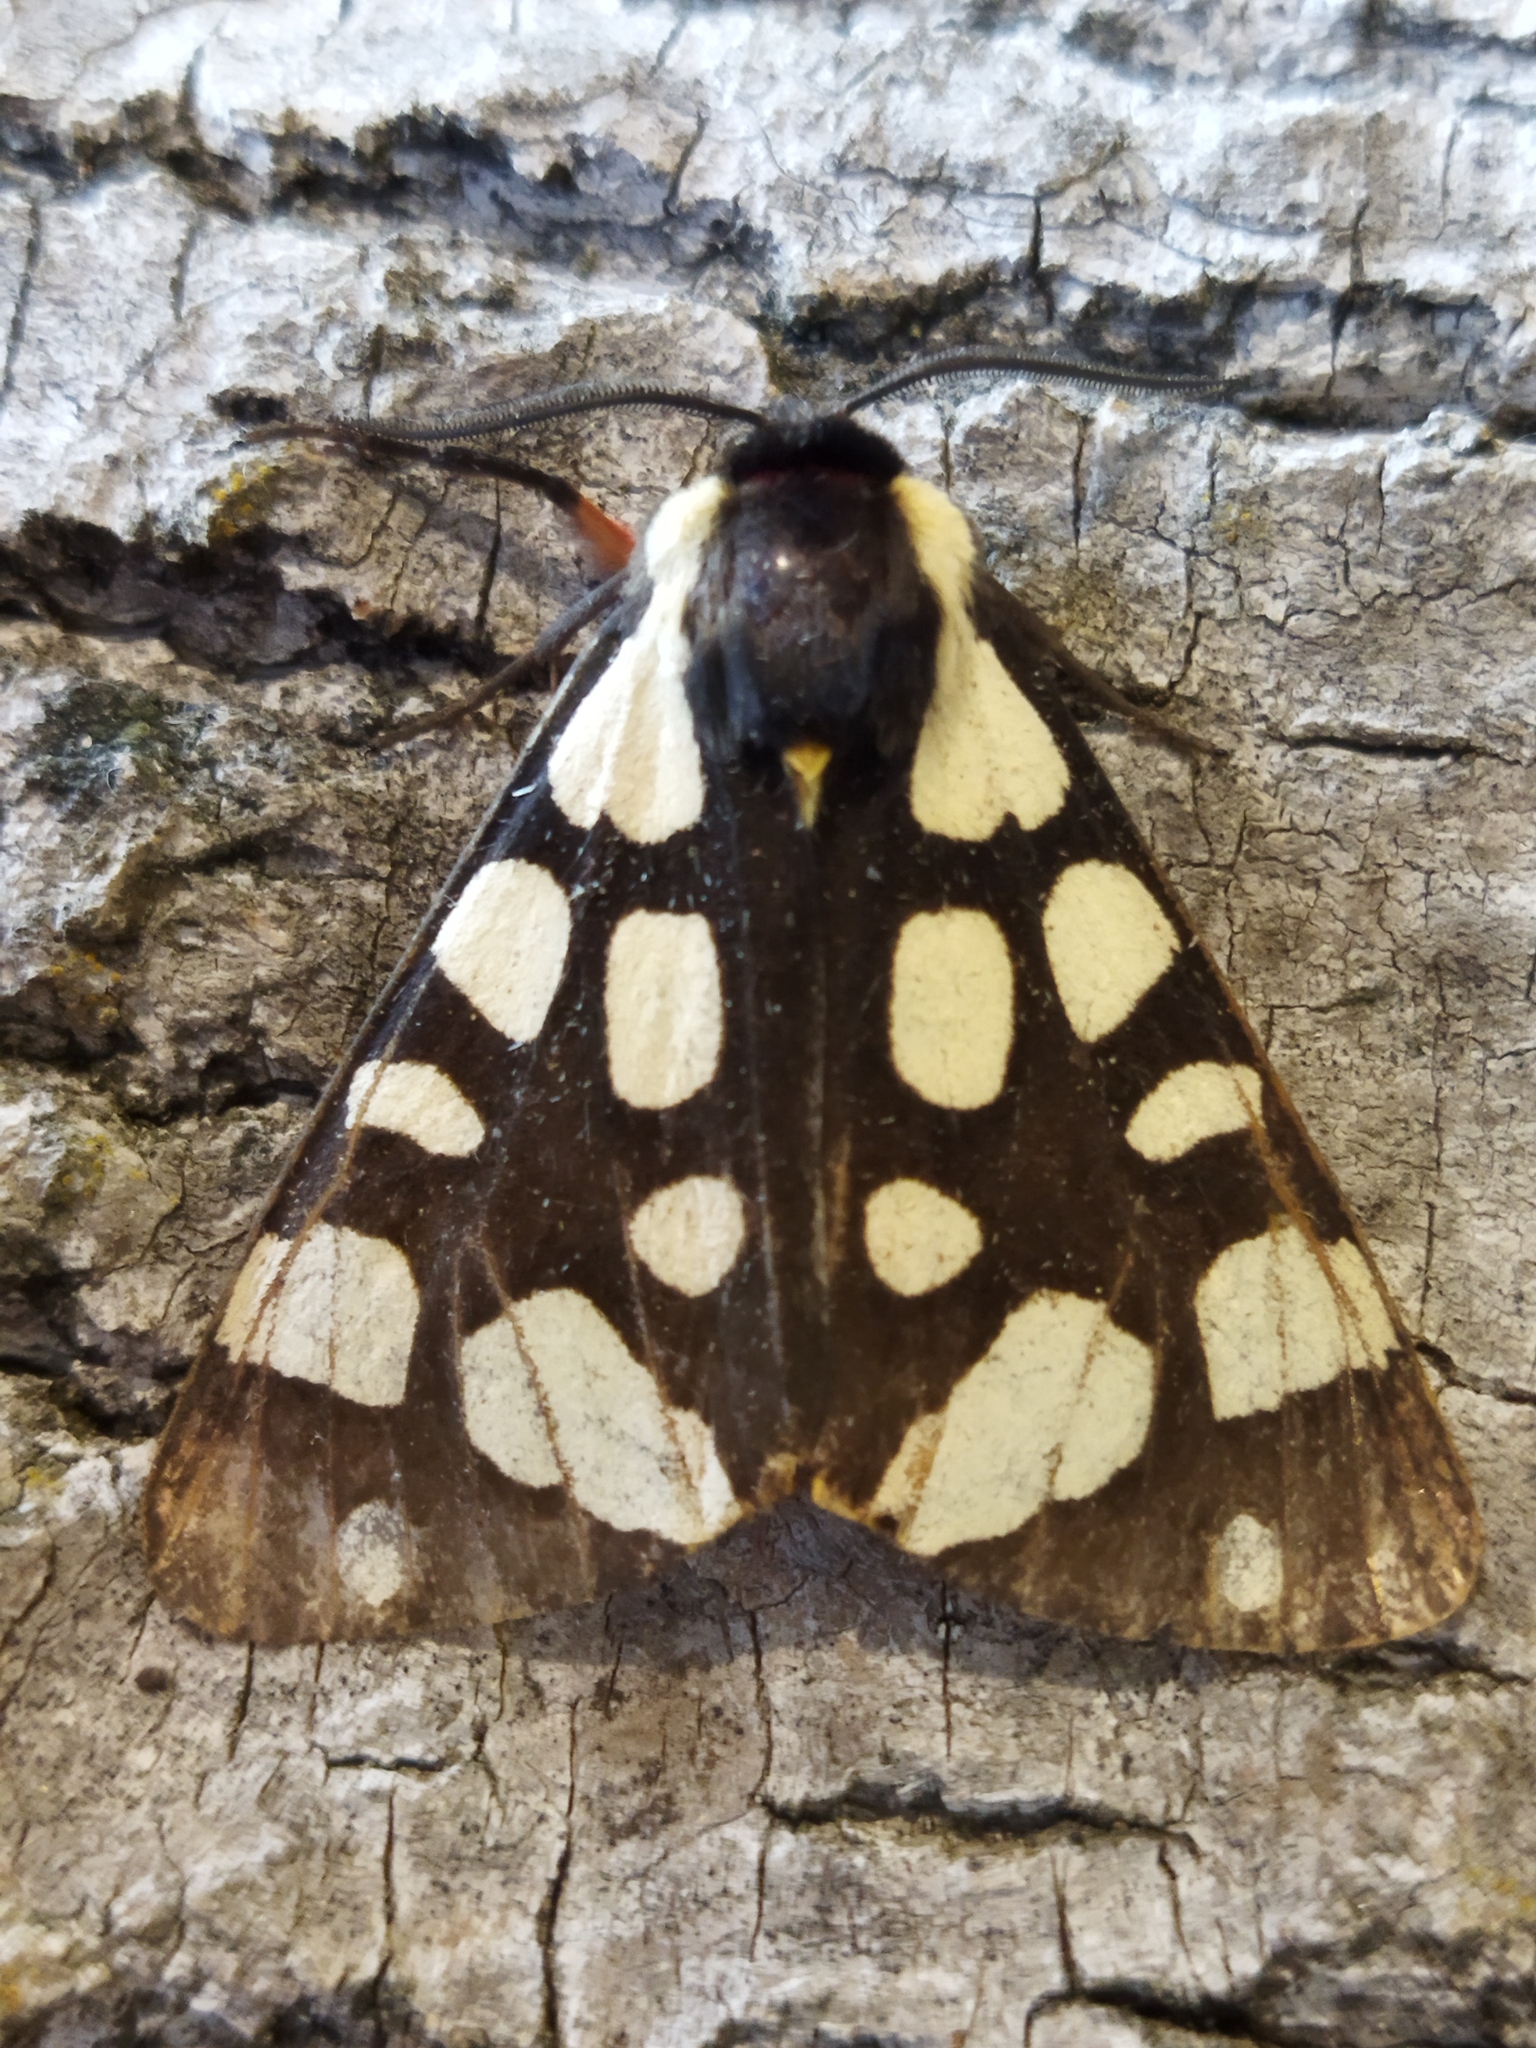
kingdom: Animalia
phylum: Arthropoda
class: Insecta
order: Lepidoptera
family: Erebidae
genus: Epicallia
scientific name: Epicallia villica
